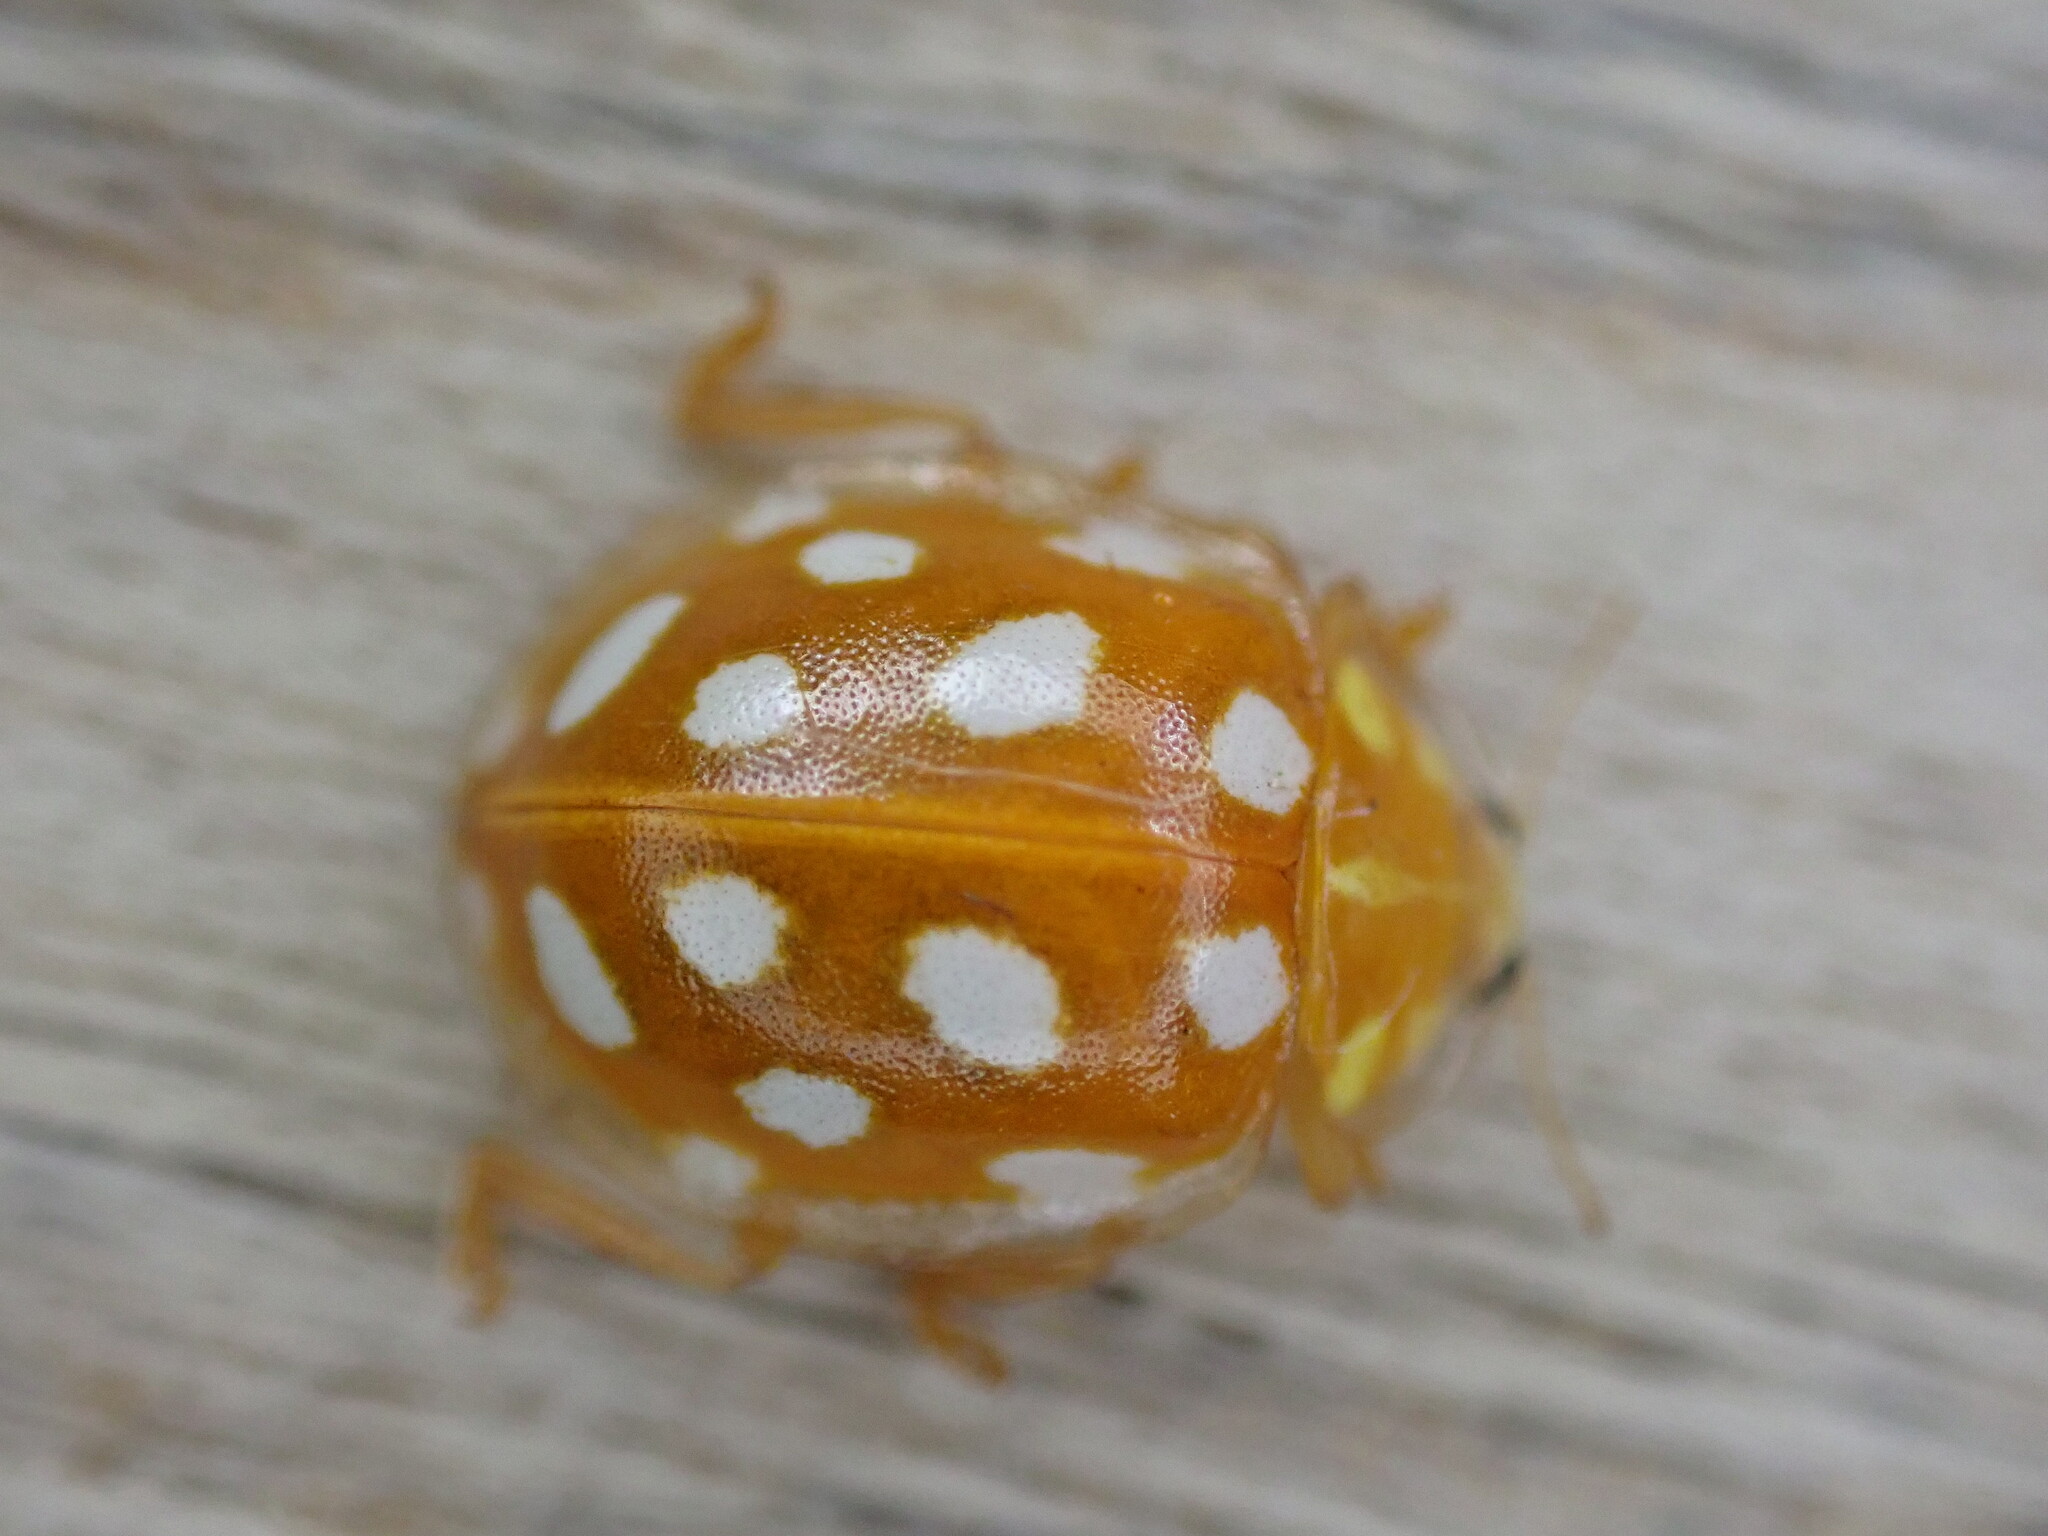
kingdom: Animalia
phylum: Arthropoda
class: Insecta
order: Coleoptera
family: Coccinellidae
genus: Halyzia
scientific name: Halyzia sedecimguttata
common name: Orange ladybird
